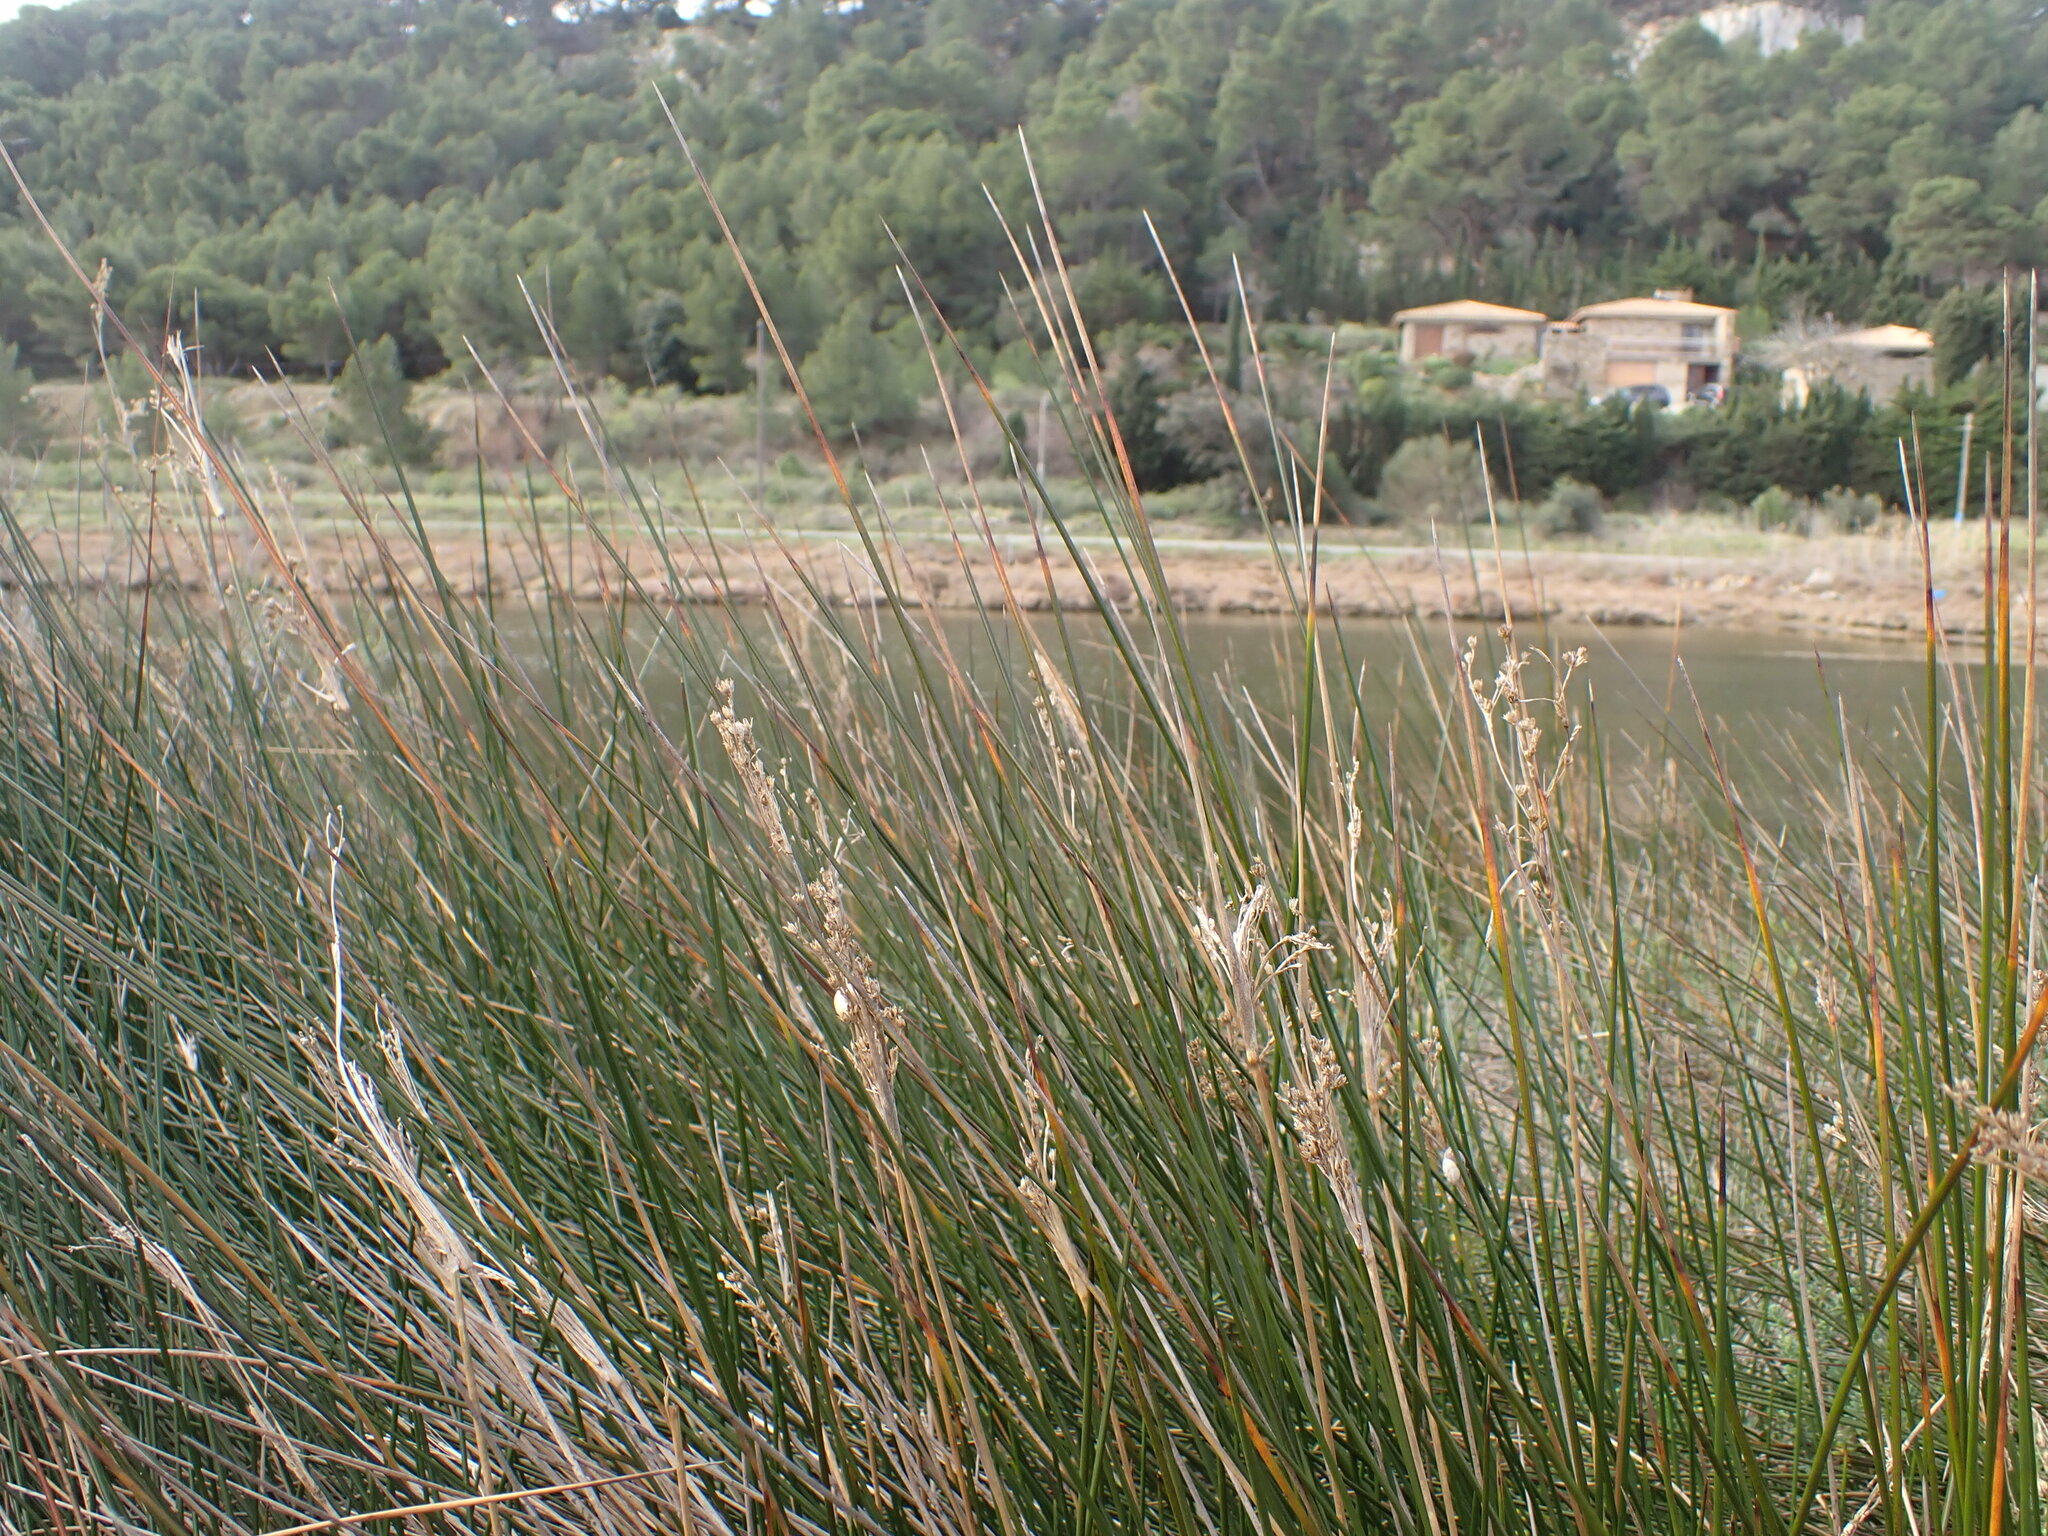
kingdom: Plantae
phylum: Tracheophyta
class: Liliopsida
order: Poales
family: Juncaceae
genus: Juncus
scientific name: Juncus maritimus
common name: Sea rush
